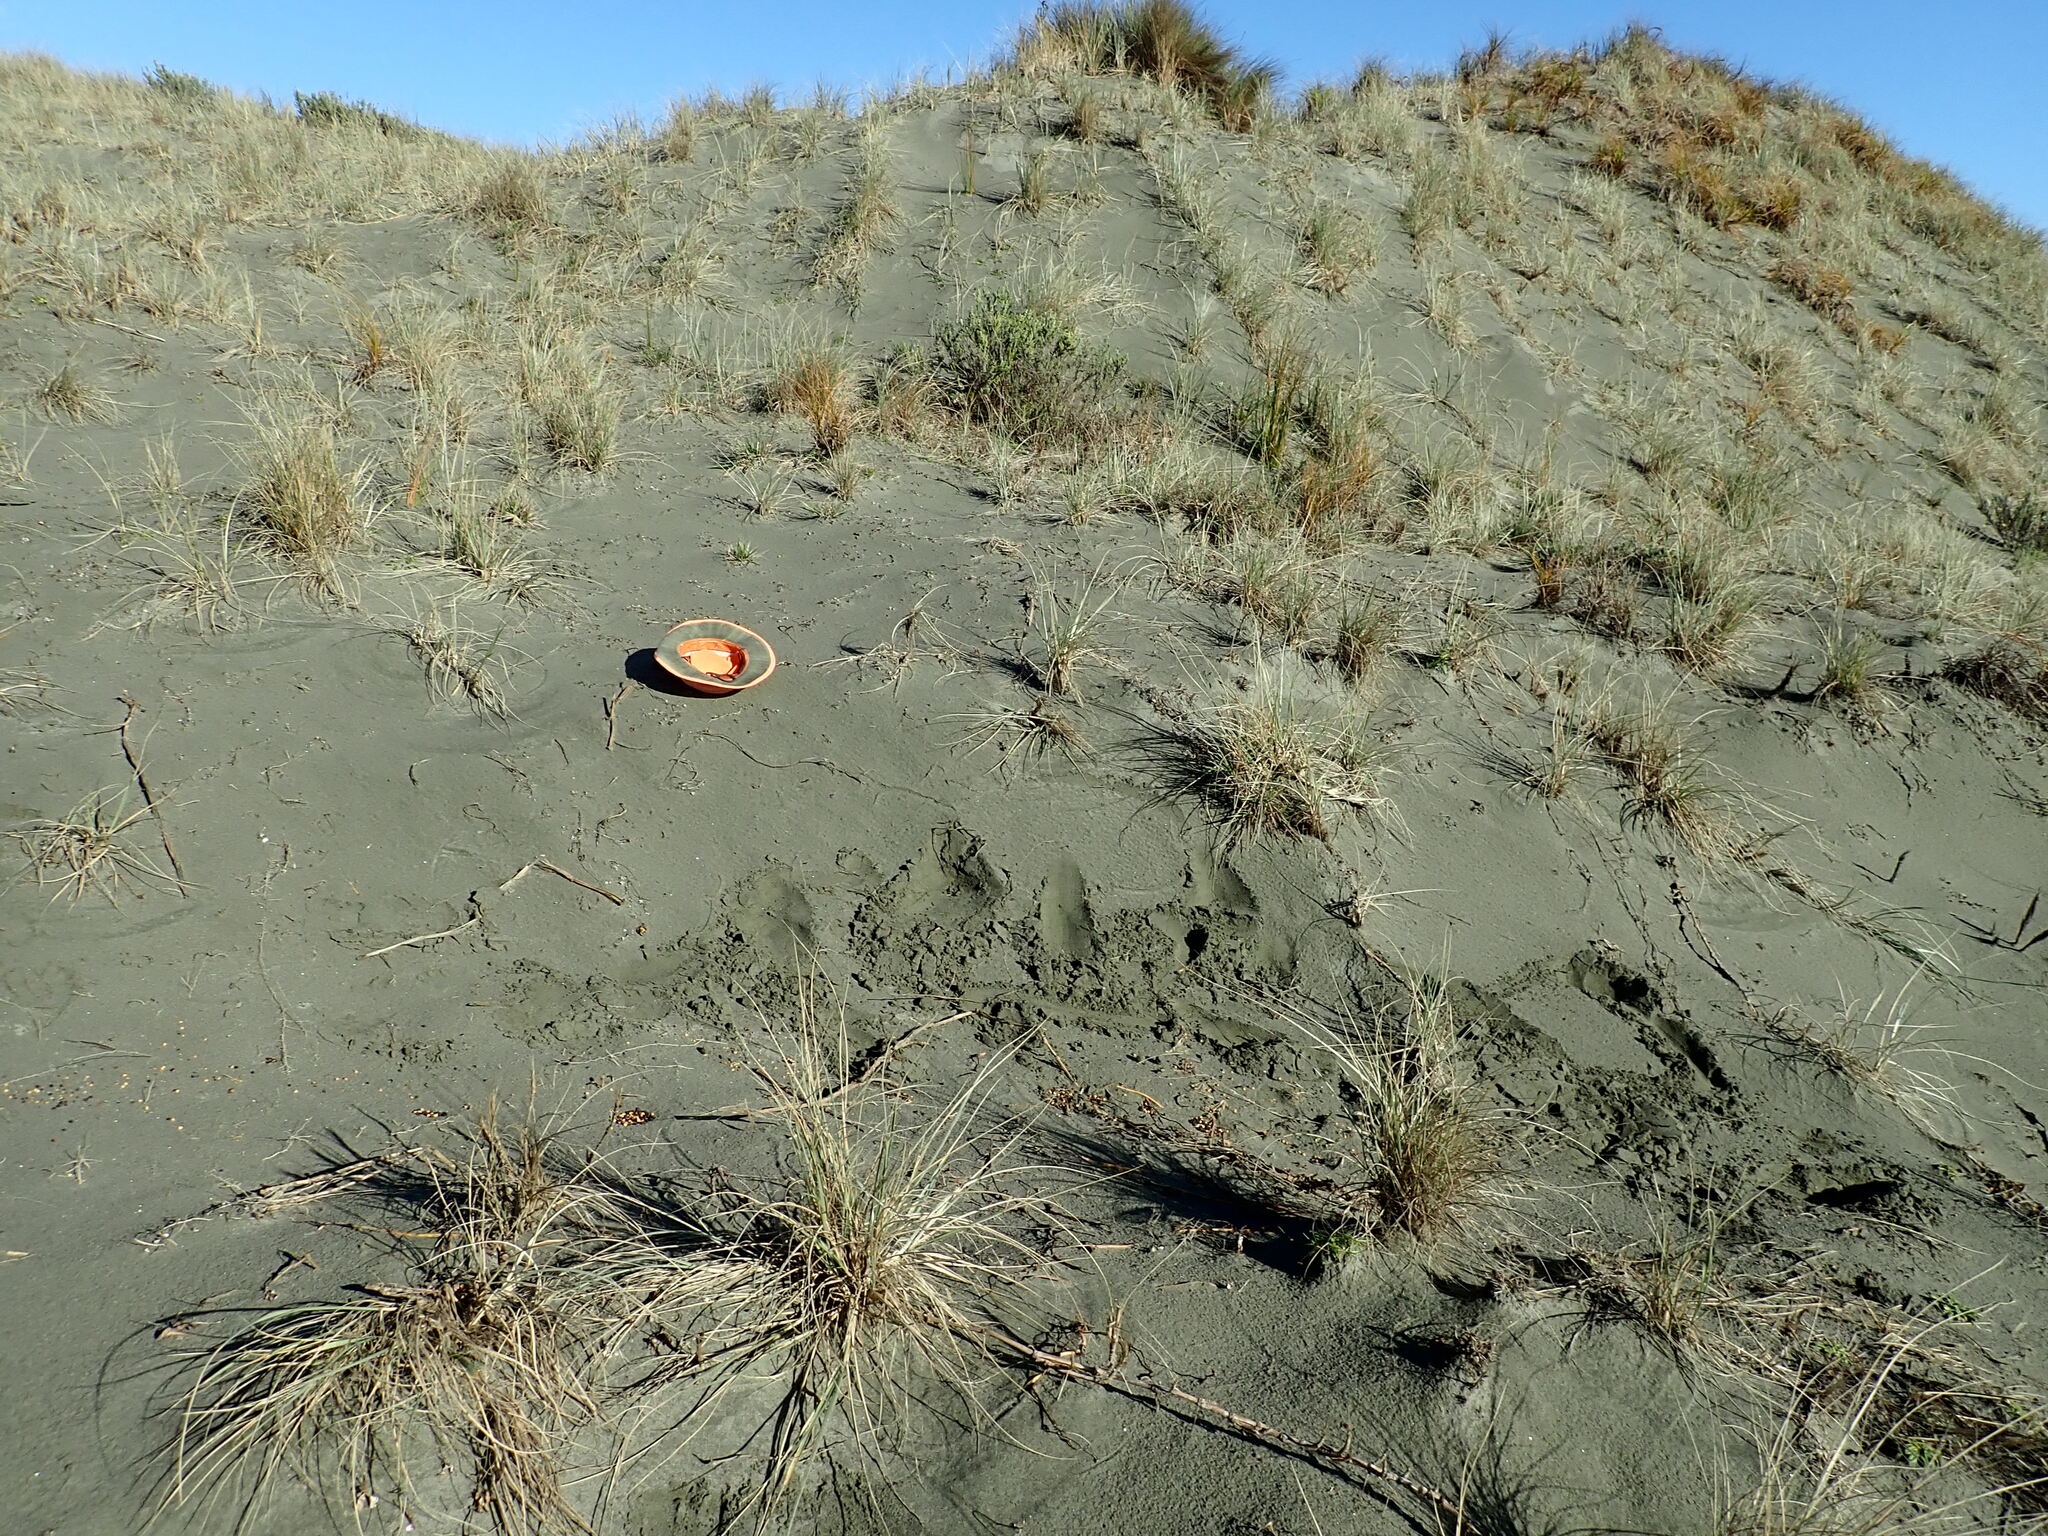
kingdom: Plantae
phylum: Tracheophyta
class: Magnoliopsida
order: Solanales
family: Convolvulaceae
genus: Calystegia
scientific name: Calystegia soldanella
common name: Sea bindweed
